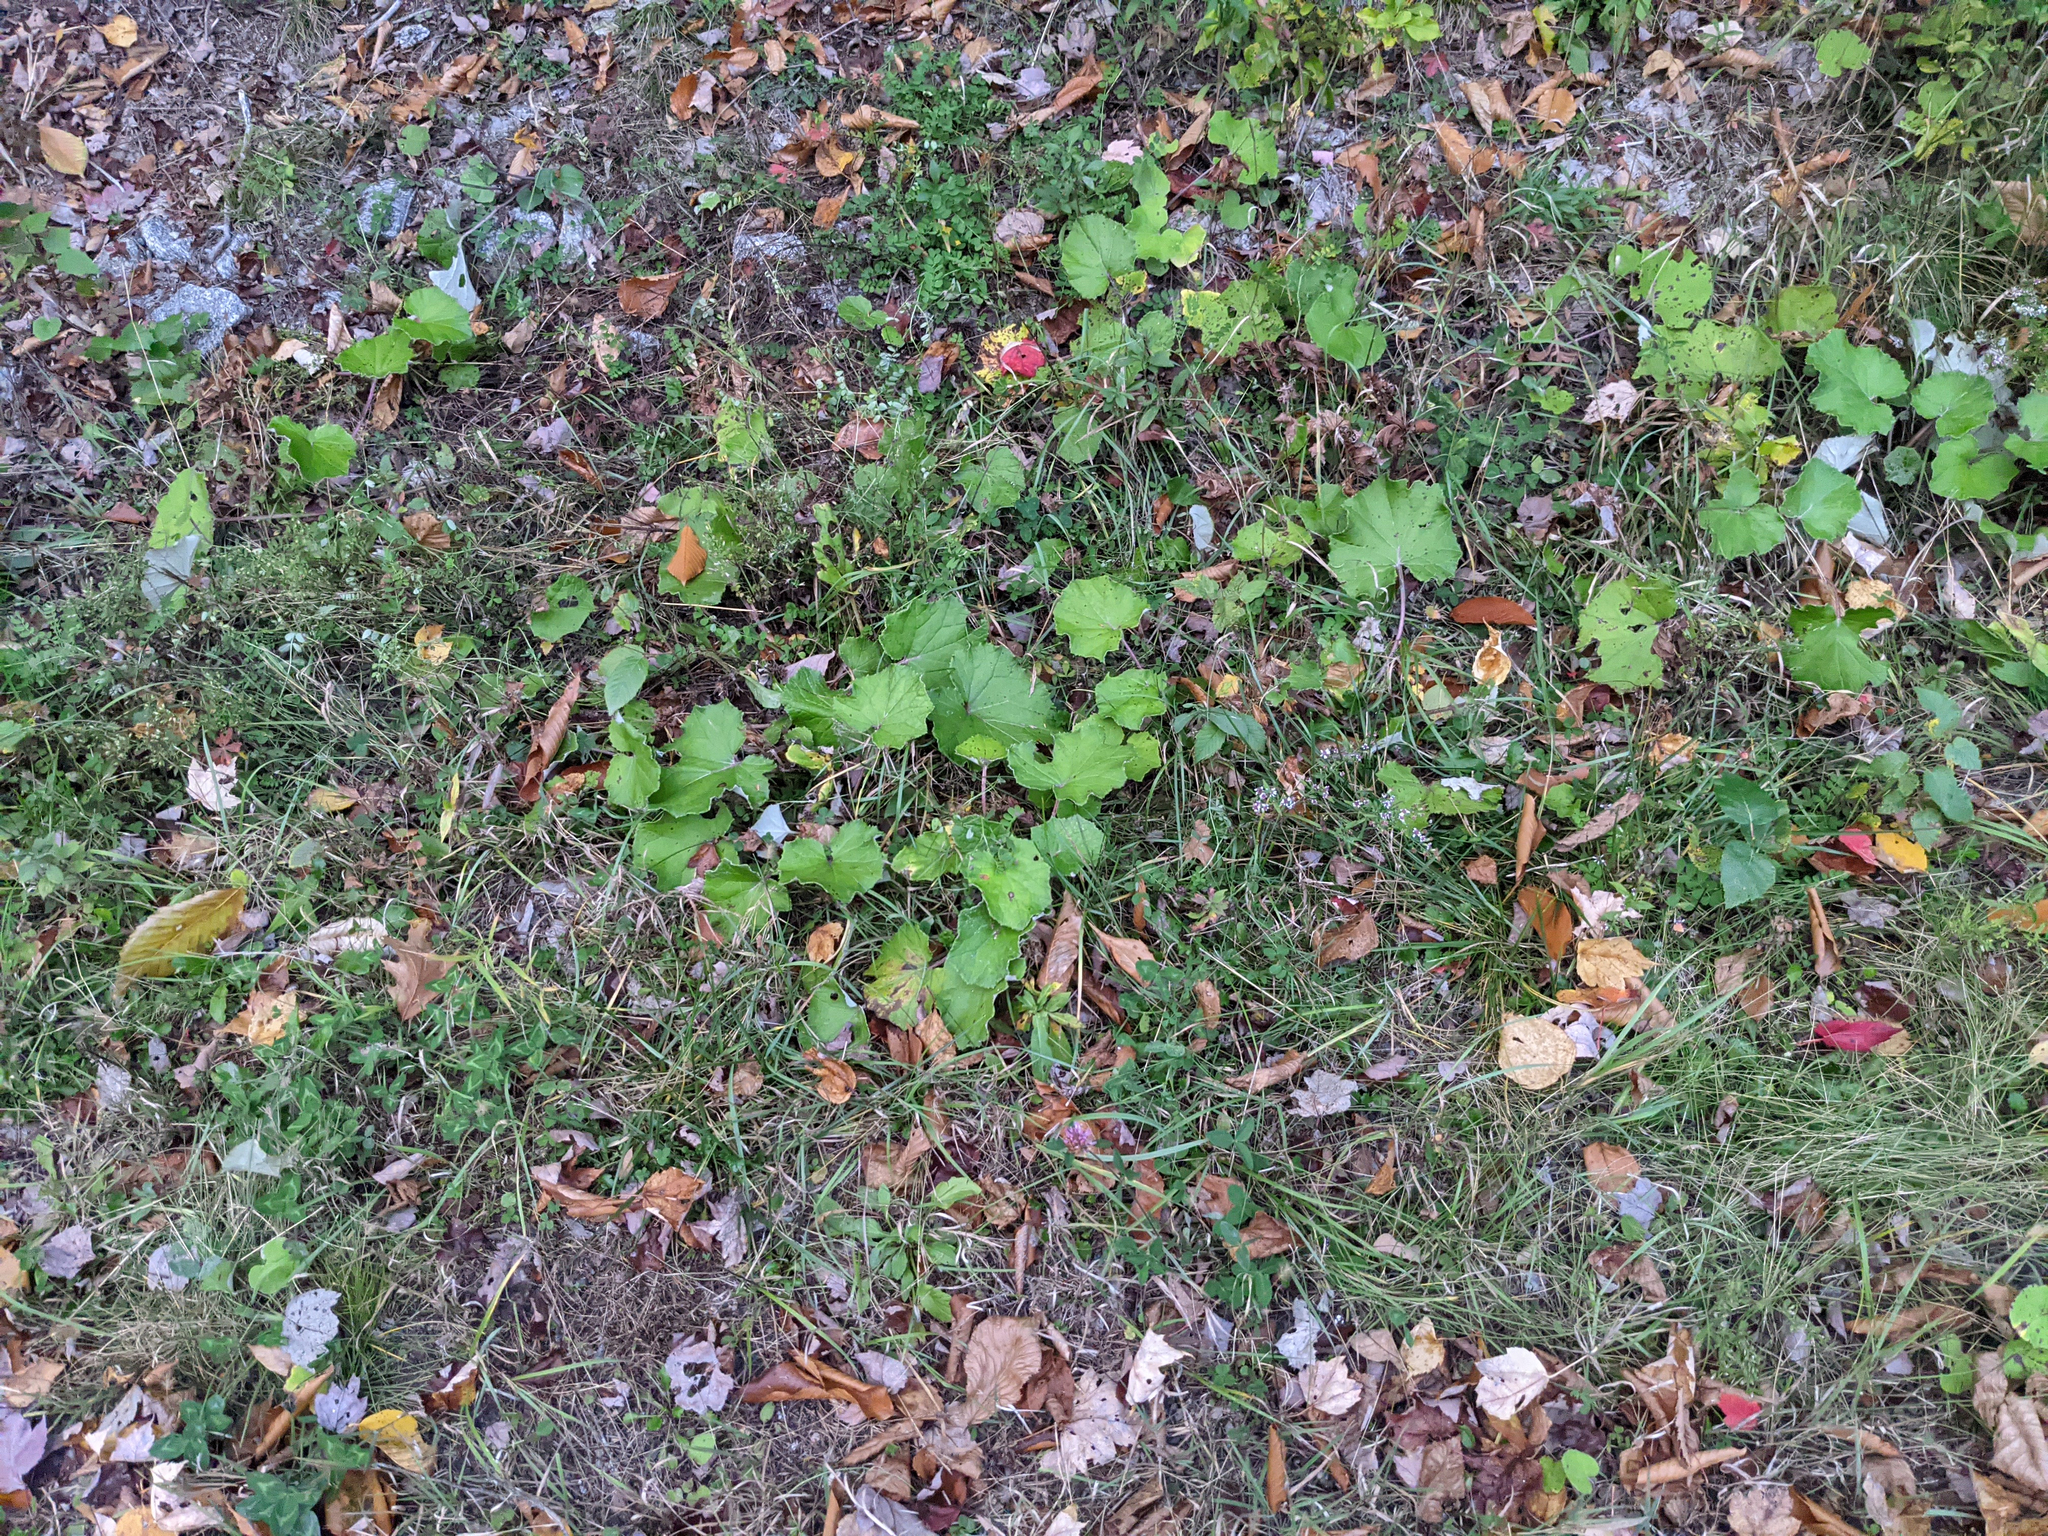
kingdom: Plantae
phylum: Tracheophyta
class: Magnoliopsida
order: Asterales
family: Asteraceae
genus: Tussilago
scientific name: Tussilago farfara
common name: Coltsfoot
